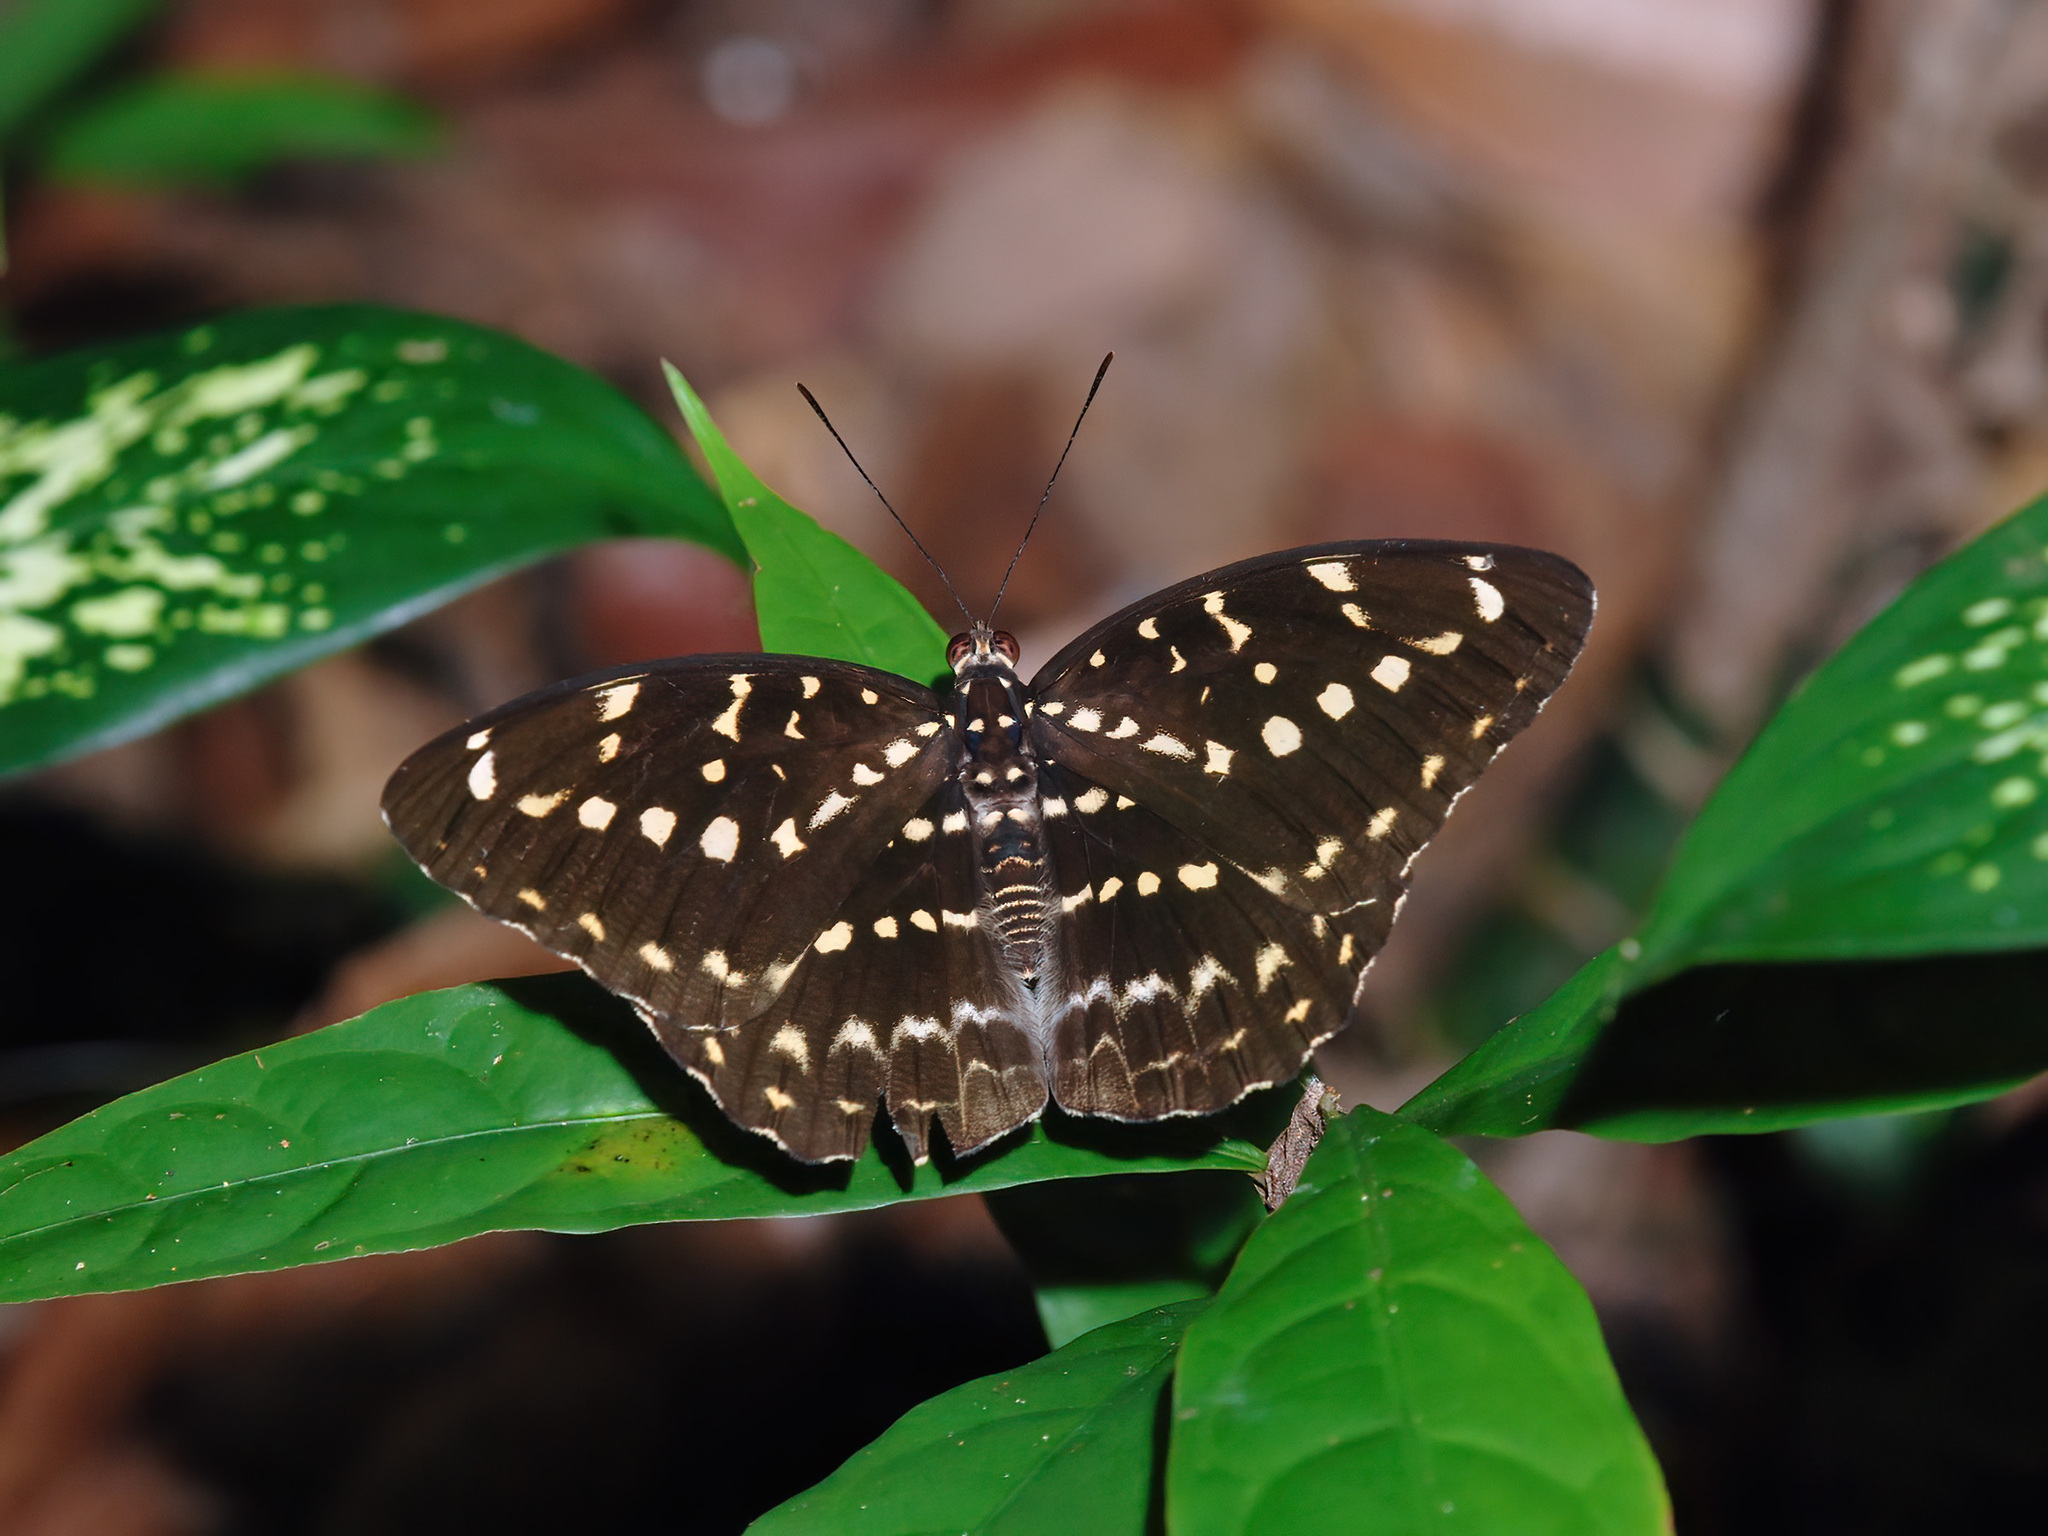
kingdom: Animalia
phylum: Arthropoda
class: Insecta
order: Lepidoptera
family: Nymphalidae
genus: Lexias
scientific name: Lexias canescens
